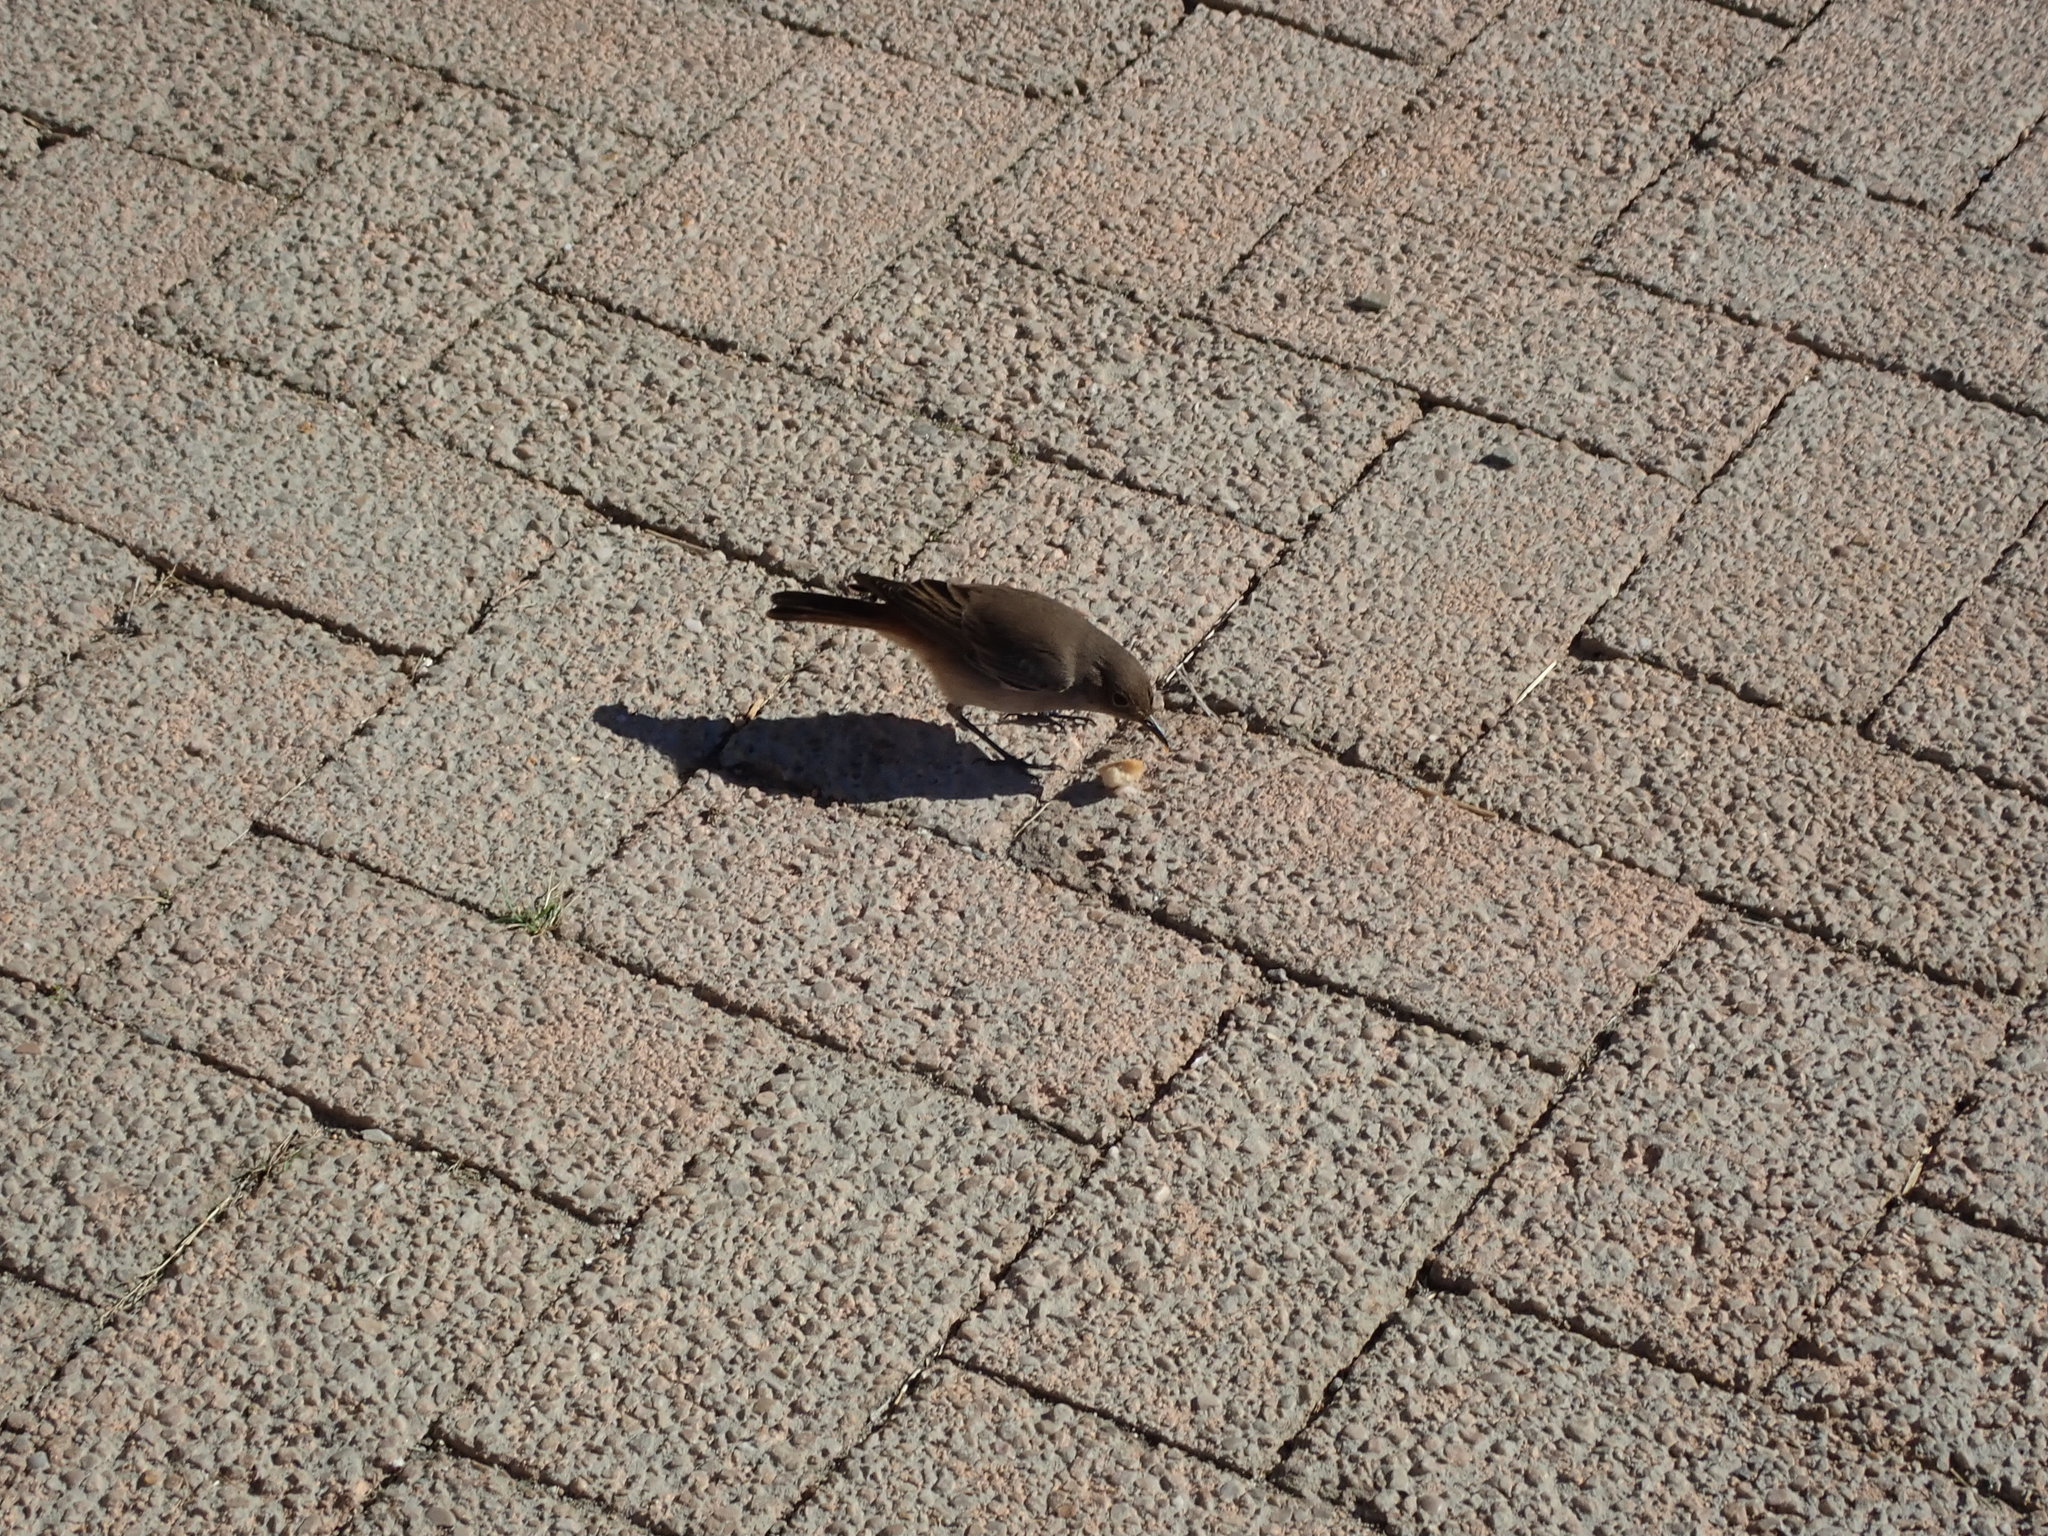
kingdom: Animalia
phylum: Chordata
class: Aves
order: Passeriformes
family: Muscicapidae
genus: Oenanthe
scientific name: Oenanthe familiaris
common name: Familiar chat
